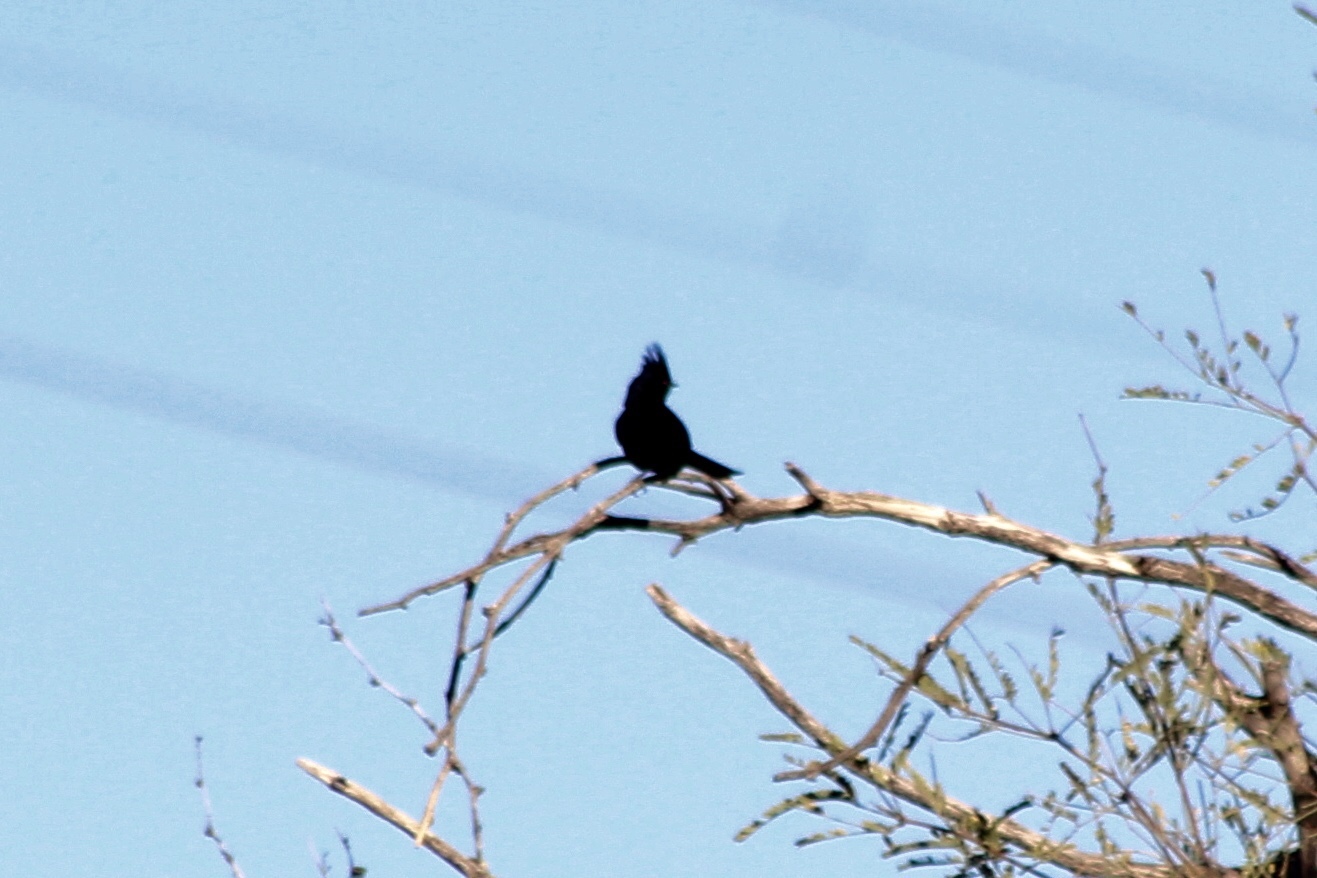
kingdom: Animalia
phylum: Chordata
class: Aves
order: Passeriformes
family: Ptilogonatidae
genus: Phainopepla
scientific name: Phainopepla nitens
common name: Phainopepla
